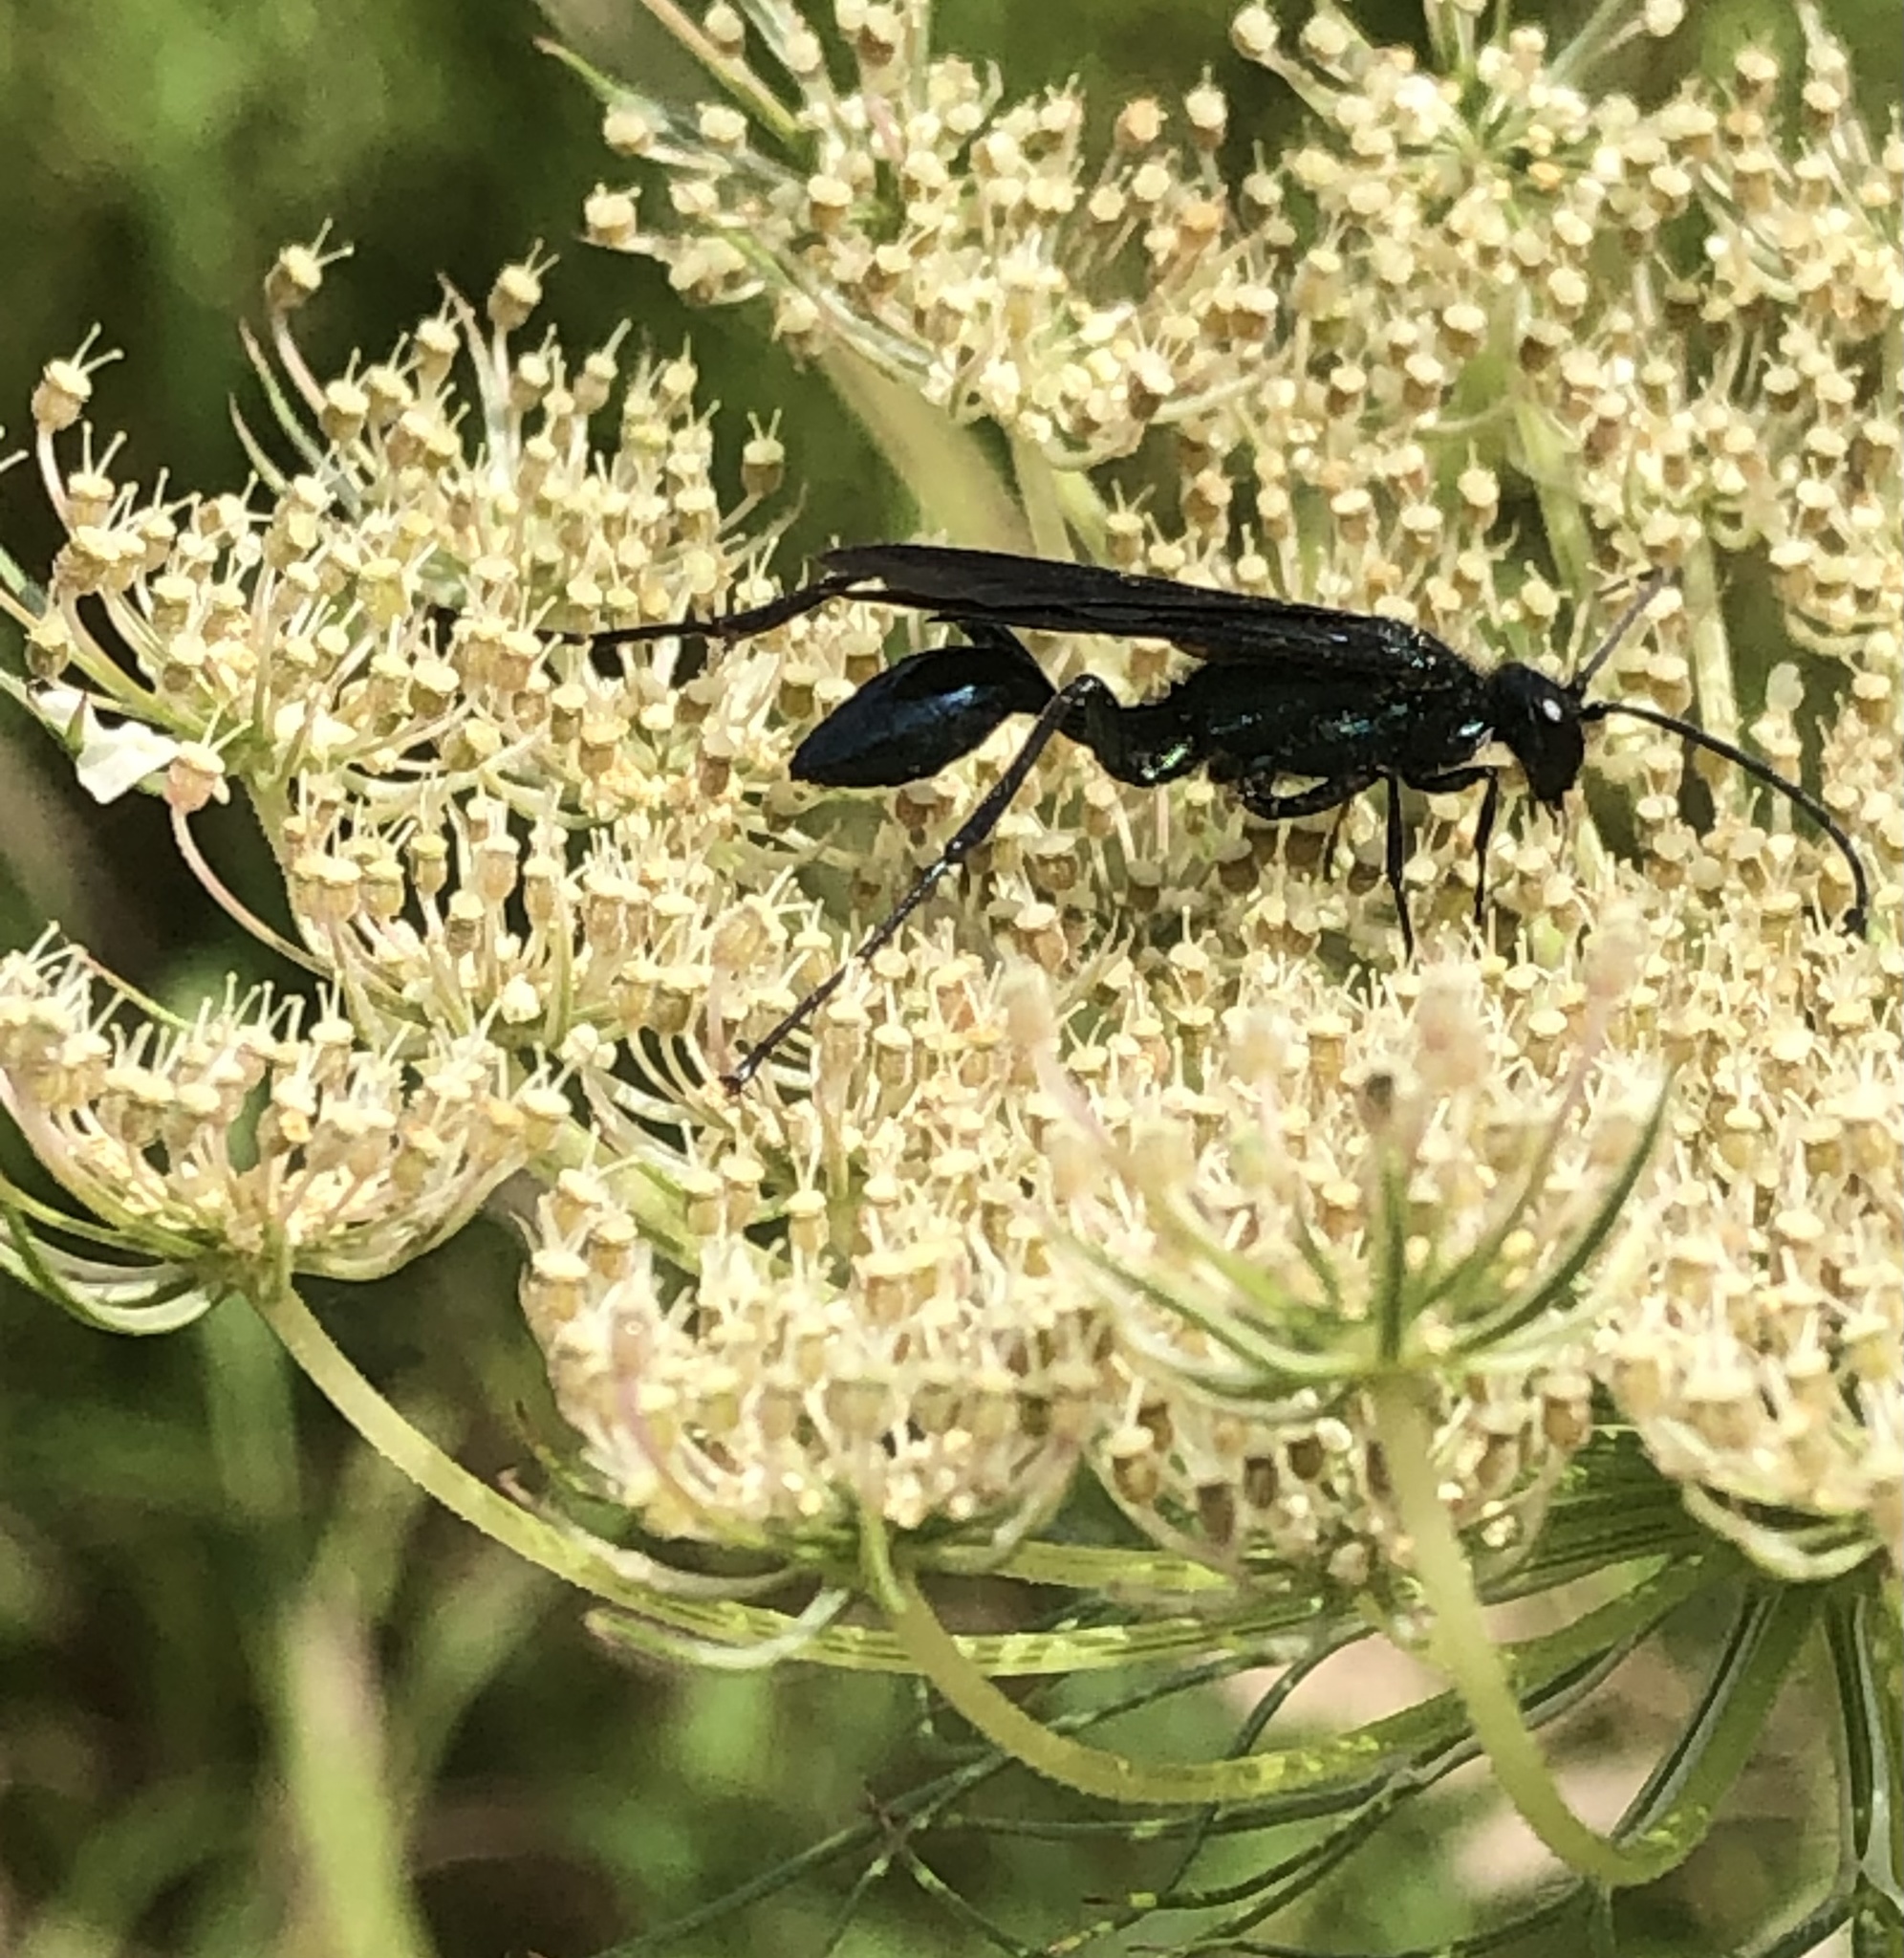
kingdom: Animalia
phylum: Arthropoda
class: Insecta
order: Hymenoptera
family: Sphecidae
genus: Chalybion
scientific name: Chalybion californicum
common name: Mud dauber
